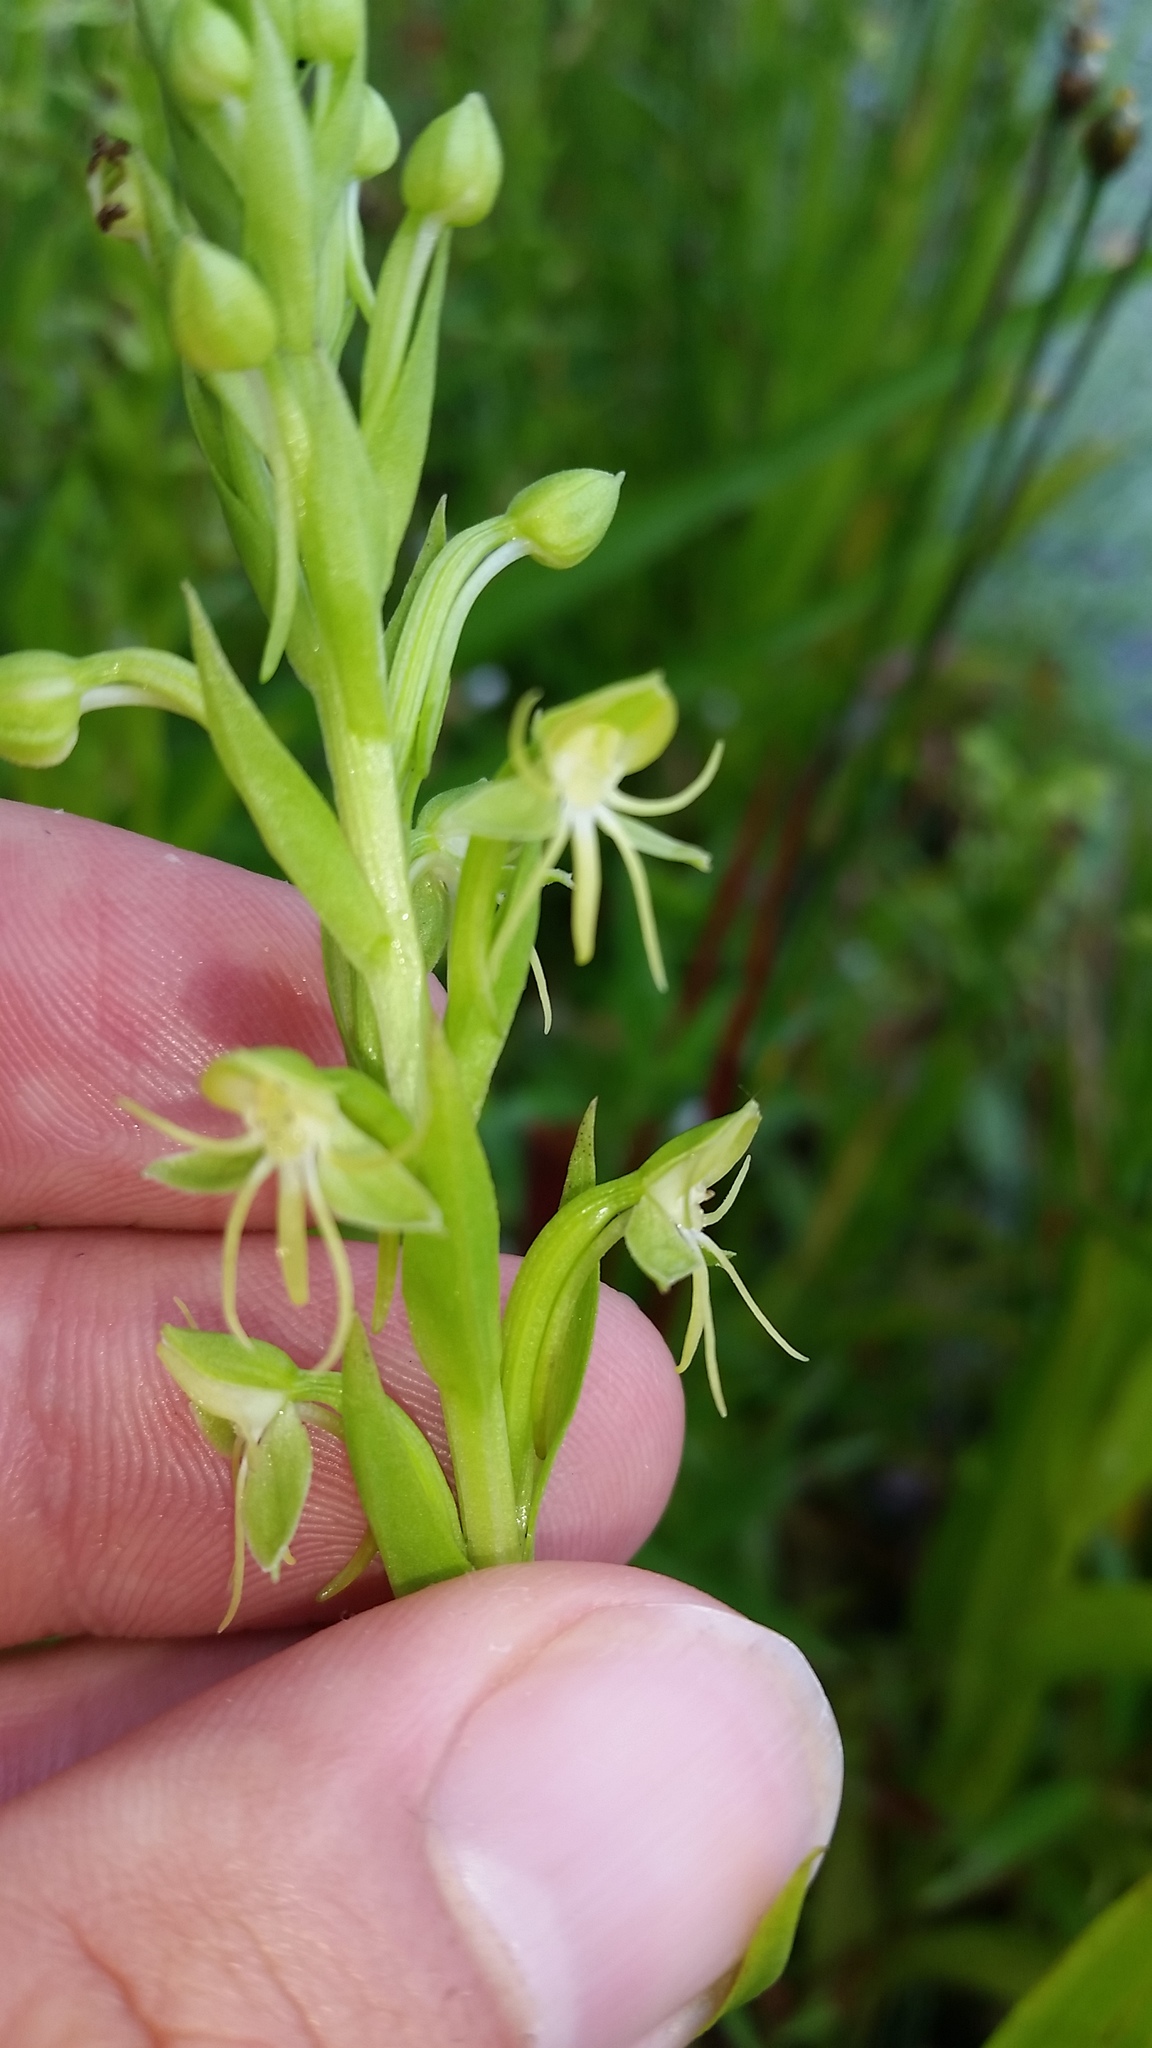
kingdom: Plantae
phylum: Tracheophyta
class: Liliopsida
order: Asparagales
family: Orchidaceae
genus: Habenaria
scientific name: Habenaria repens
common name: Water orchid
